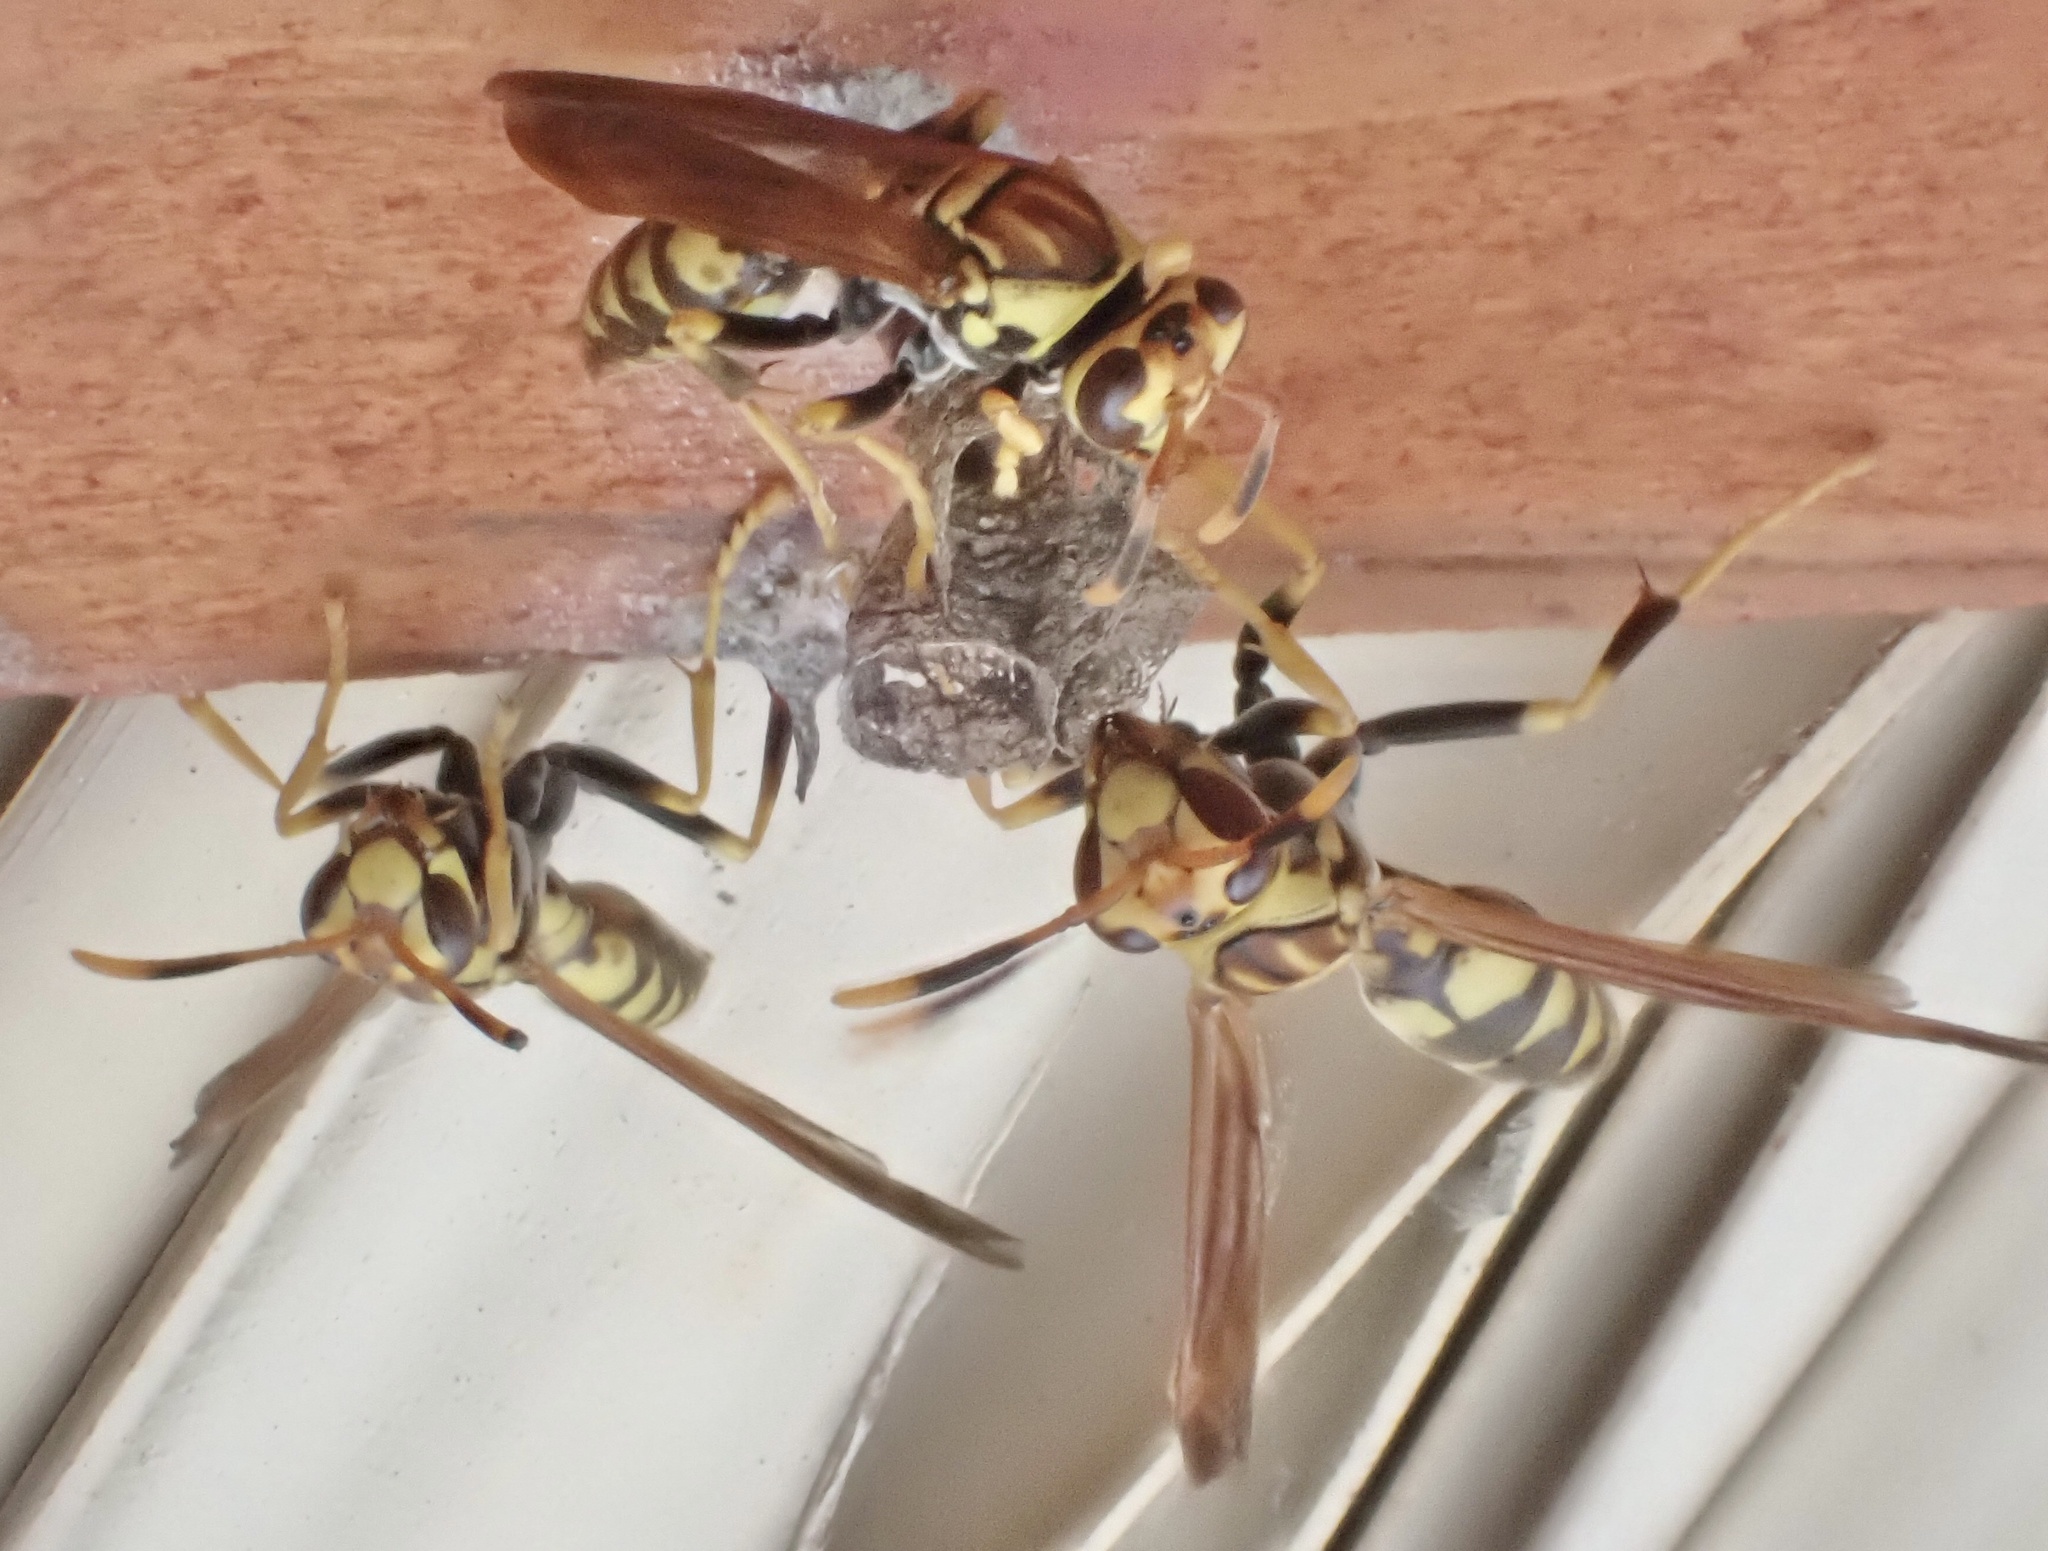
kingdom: Animalia
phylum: Arthropoda
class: Insecta
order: Hymenoptera
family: Eumenidae
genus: Polistes
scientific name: Polistes myersi
